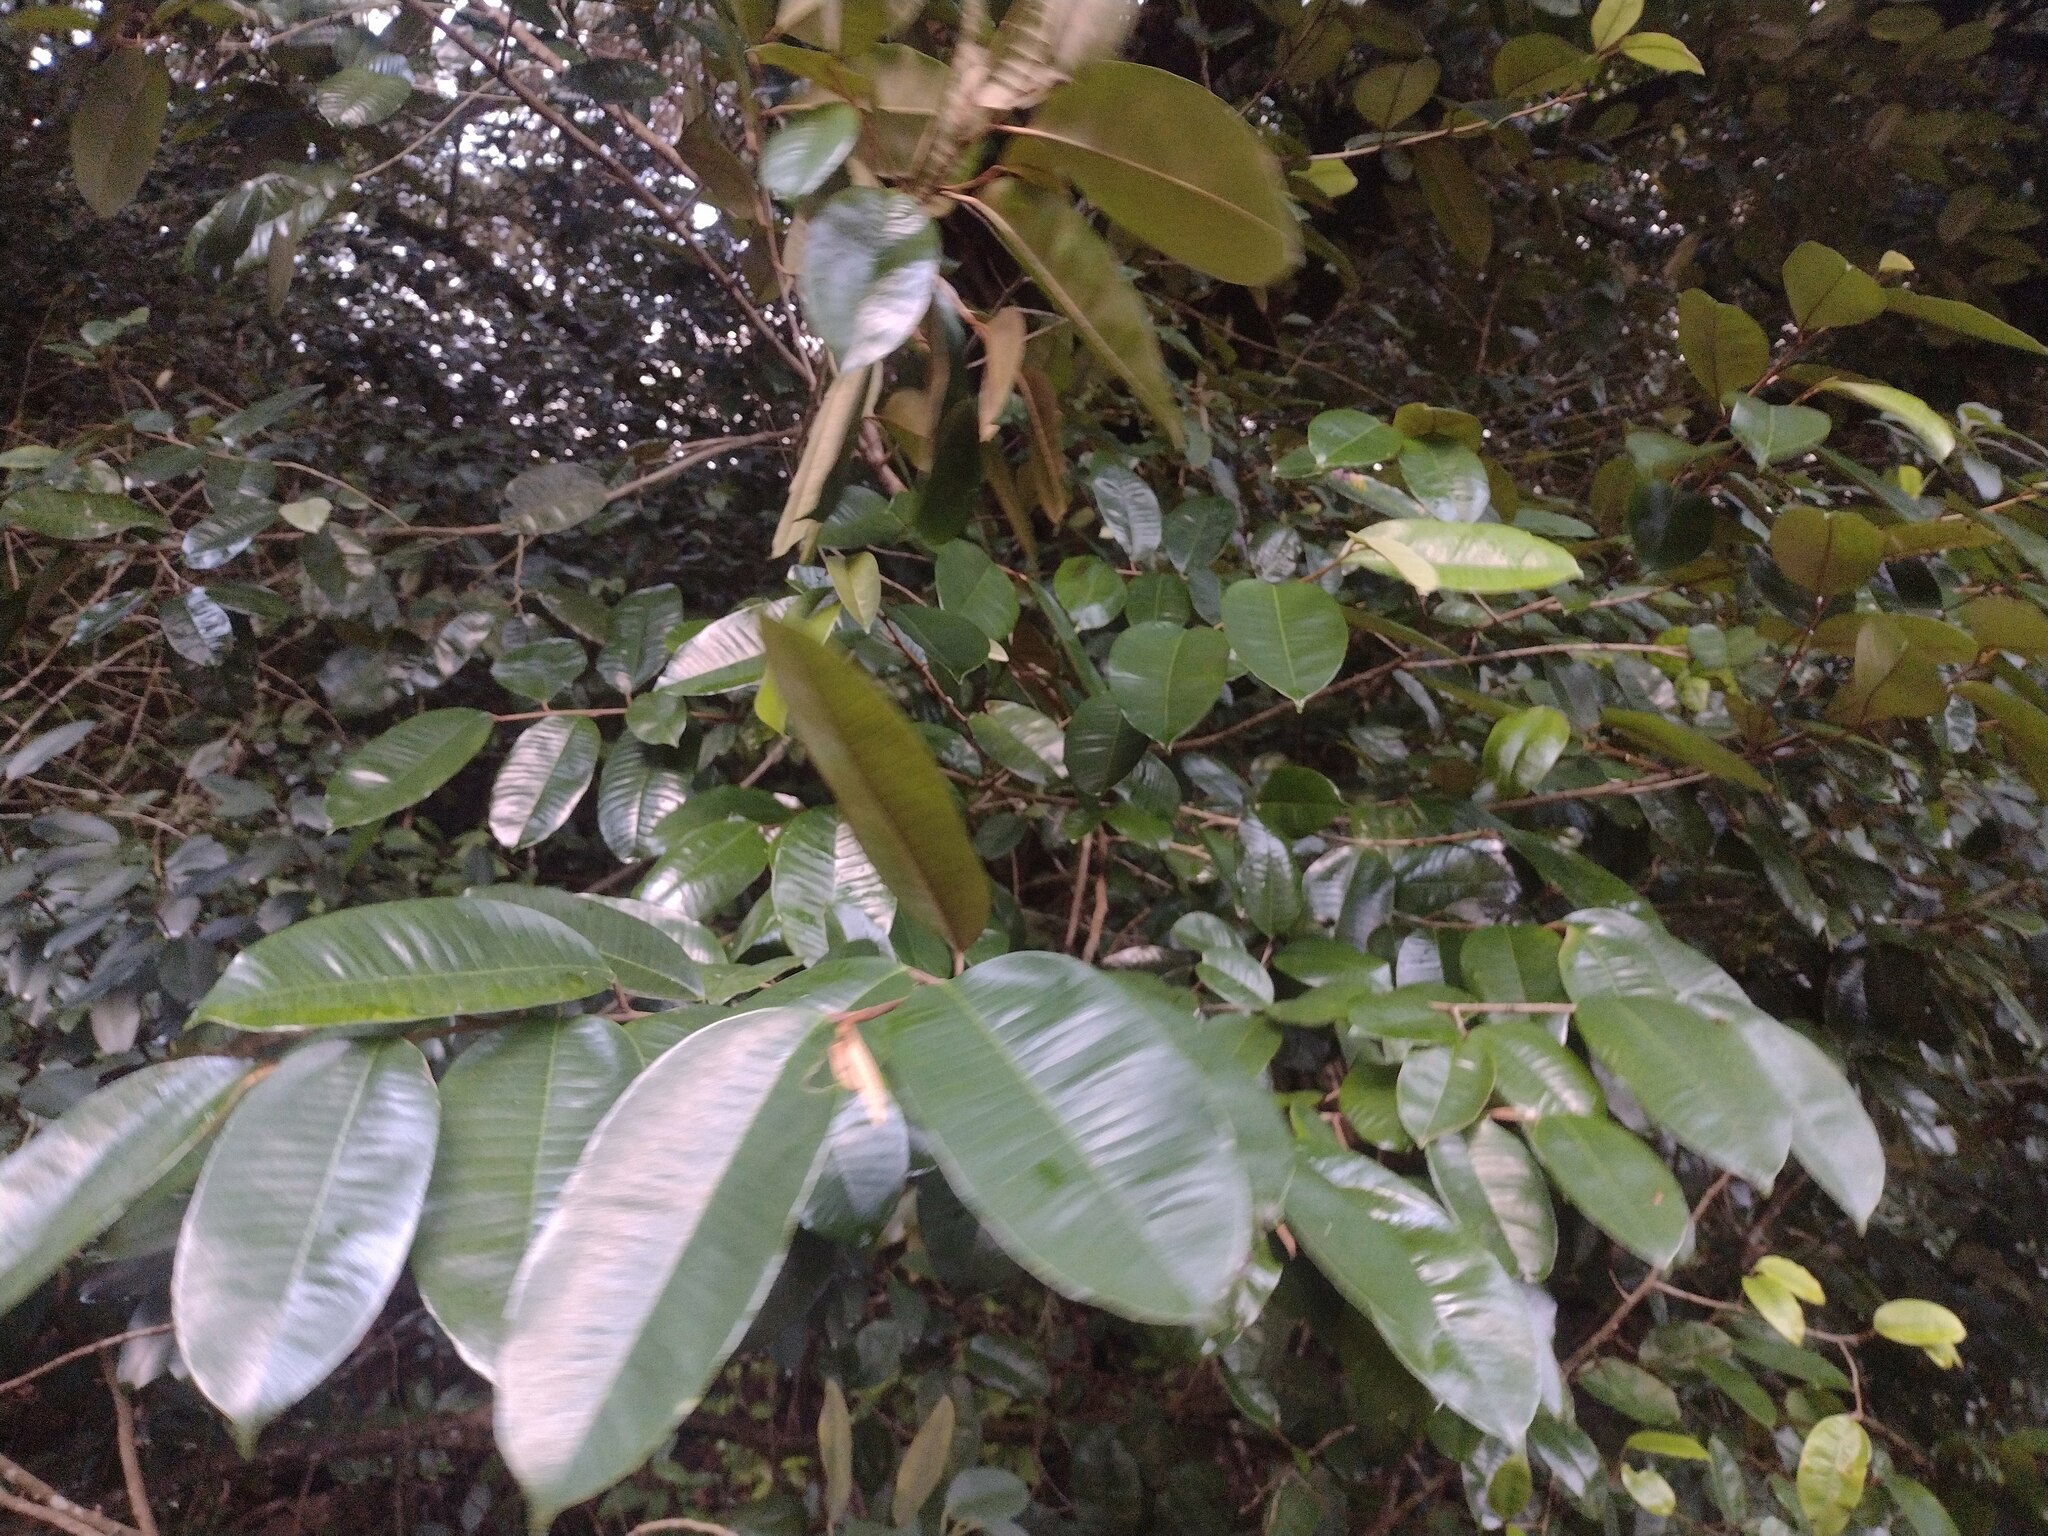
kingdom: Plantae
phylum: Tracheophyta
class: Magnoliopsida
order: Ericales
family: Sapotaceae
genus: Chrysophyllum
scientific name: Chrysophyllum oliviforme
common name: Satinleaf
